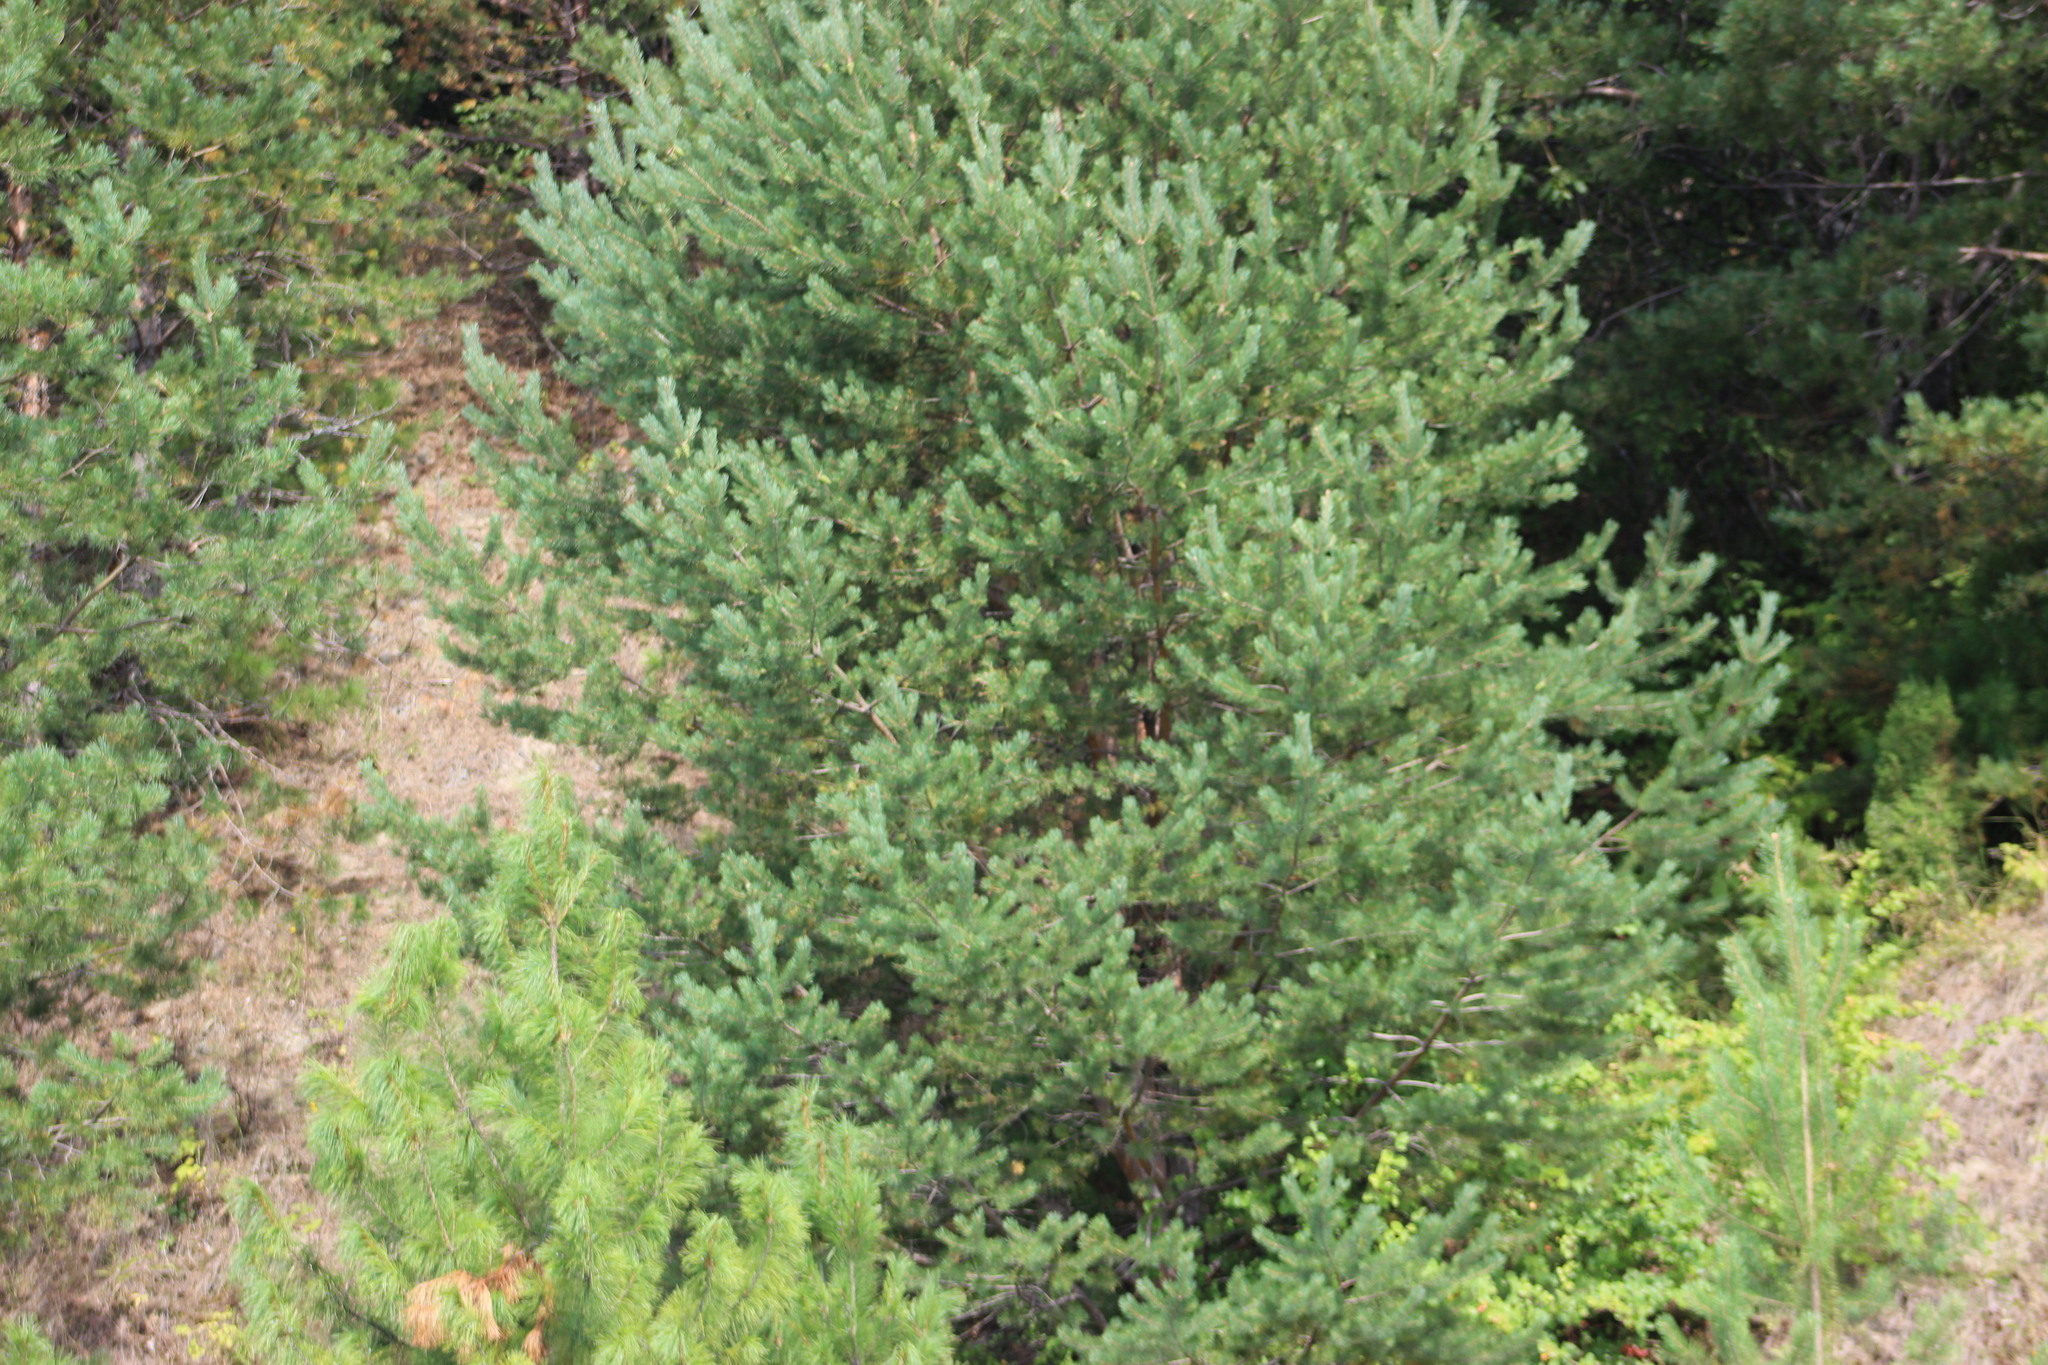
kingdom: Plantae
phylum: Tracheophyta
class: Pinopsida
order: Pinales
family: Pinaceae
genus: Pinus
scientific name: Pinus sylvestris
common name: Scots pine
